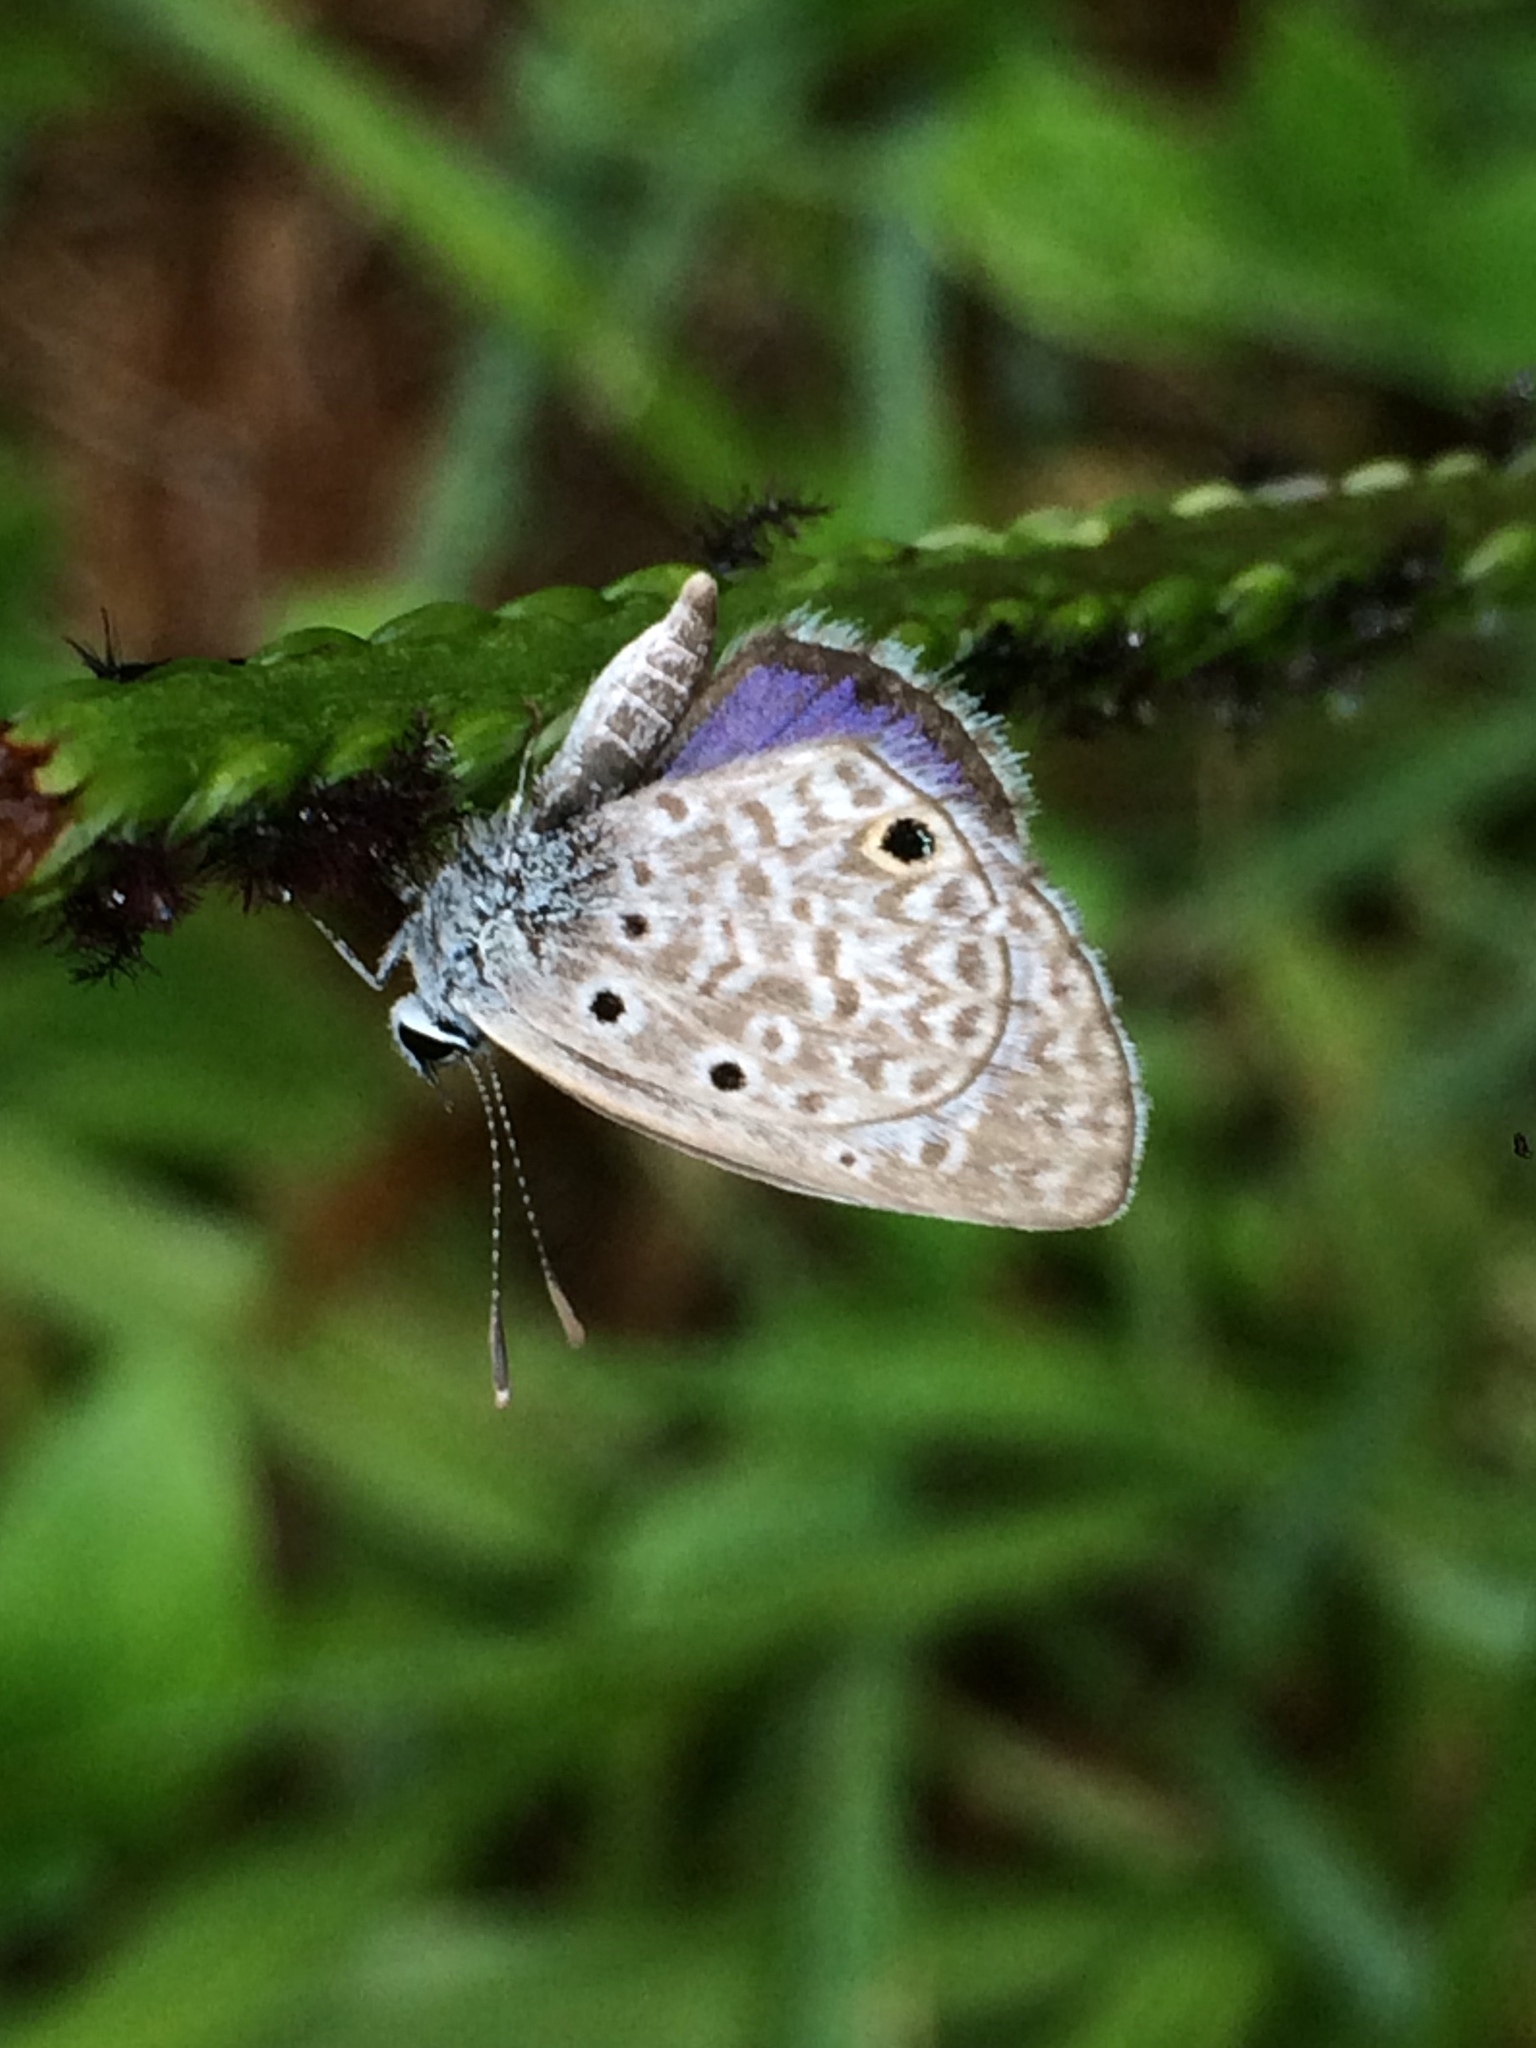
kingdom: Animalia
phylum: Arthropoda
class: Insecta
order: Lepidoptera
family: Lycaenidae
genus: Hemiargus
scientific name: Hemiargus hanno
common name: Common blue
